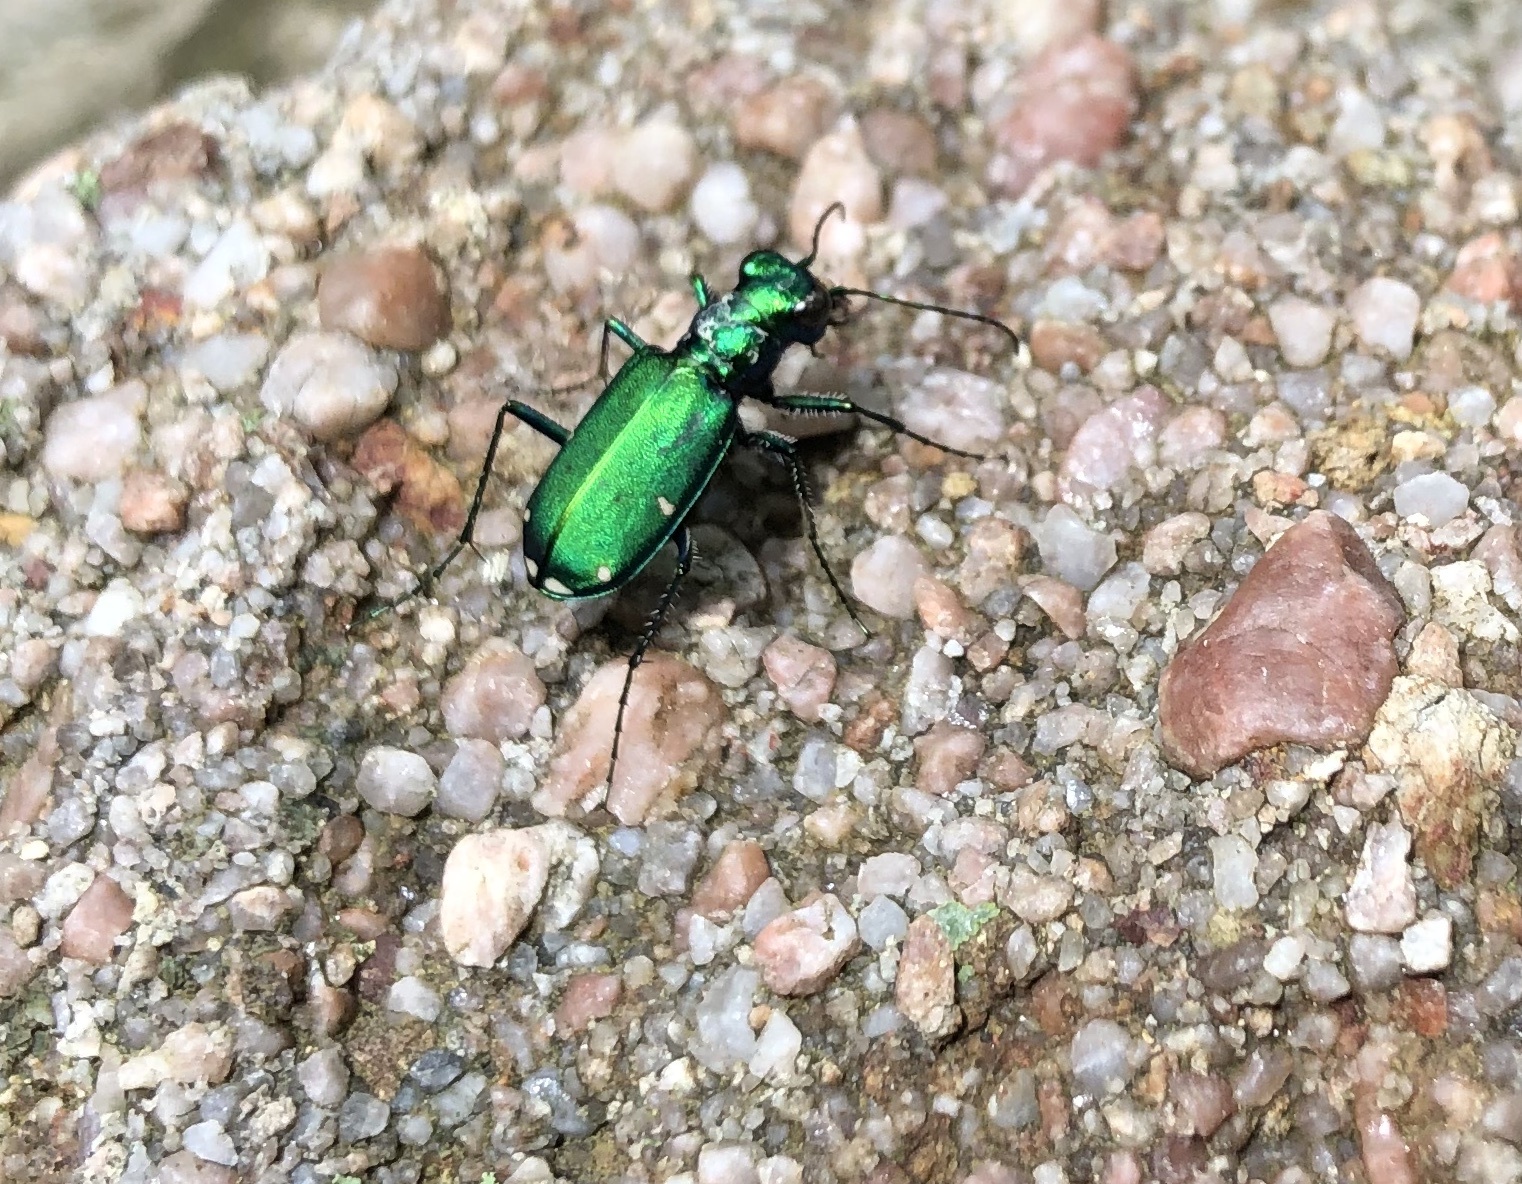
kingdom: Animalia
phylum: Arthropoda
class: Insecta
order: Coleoptera
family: Carabidae
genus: Cicindela
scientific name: Cicindela sexguttata
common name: Six-spotted tiger beetle
